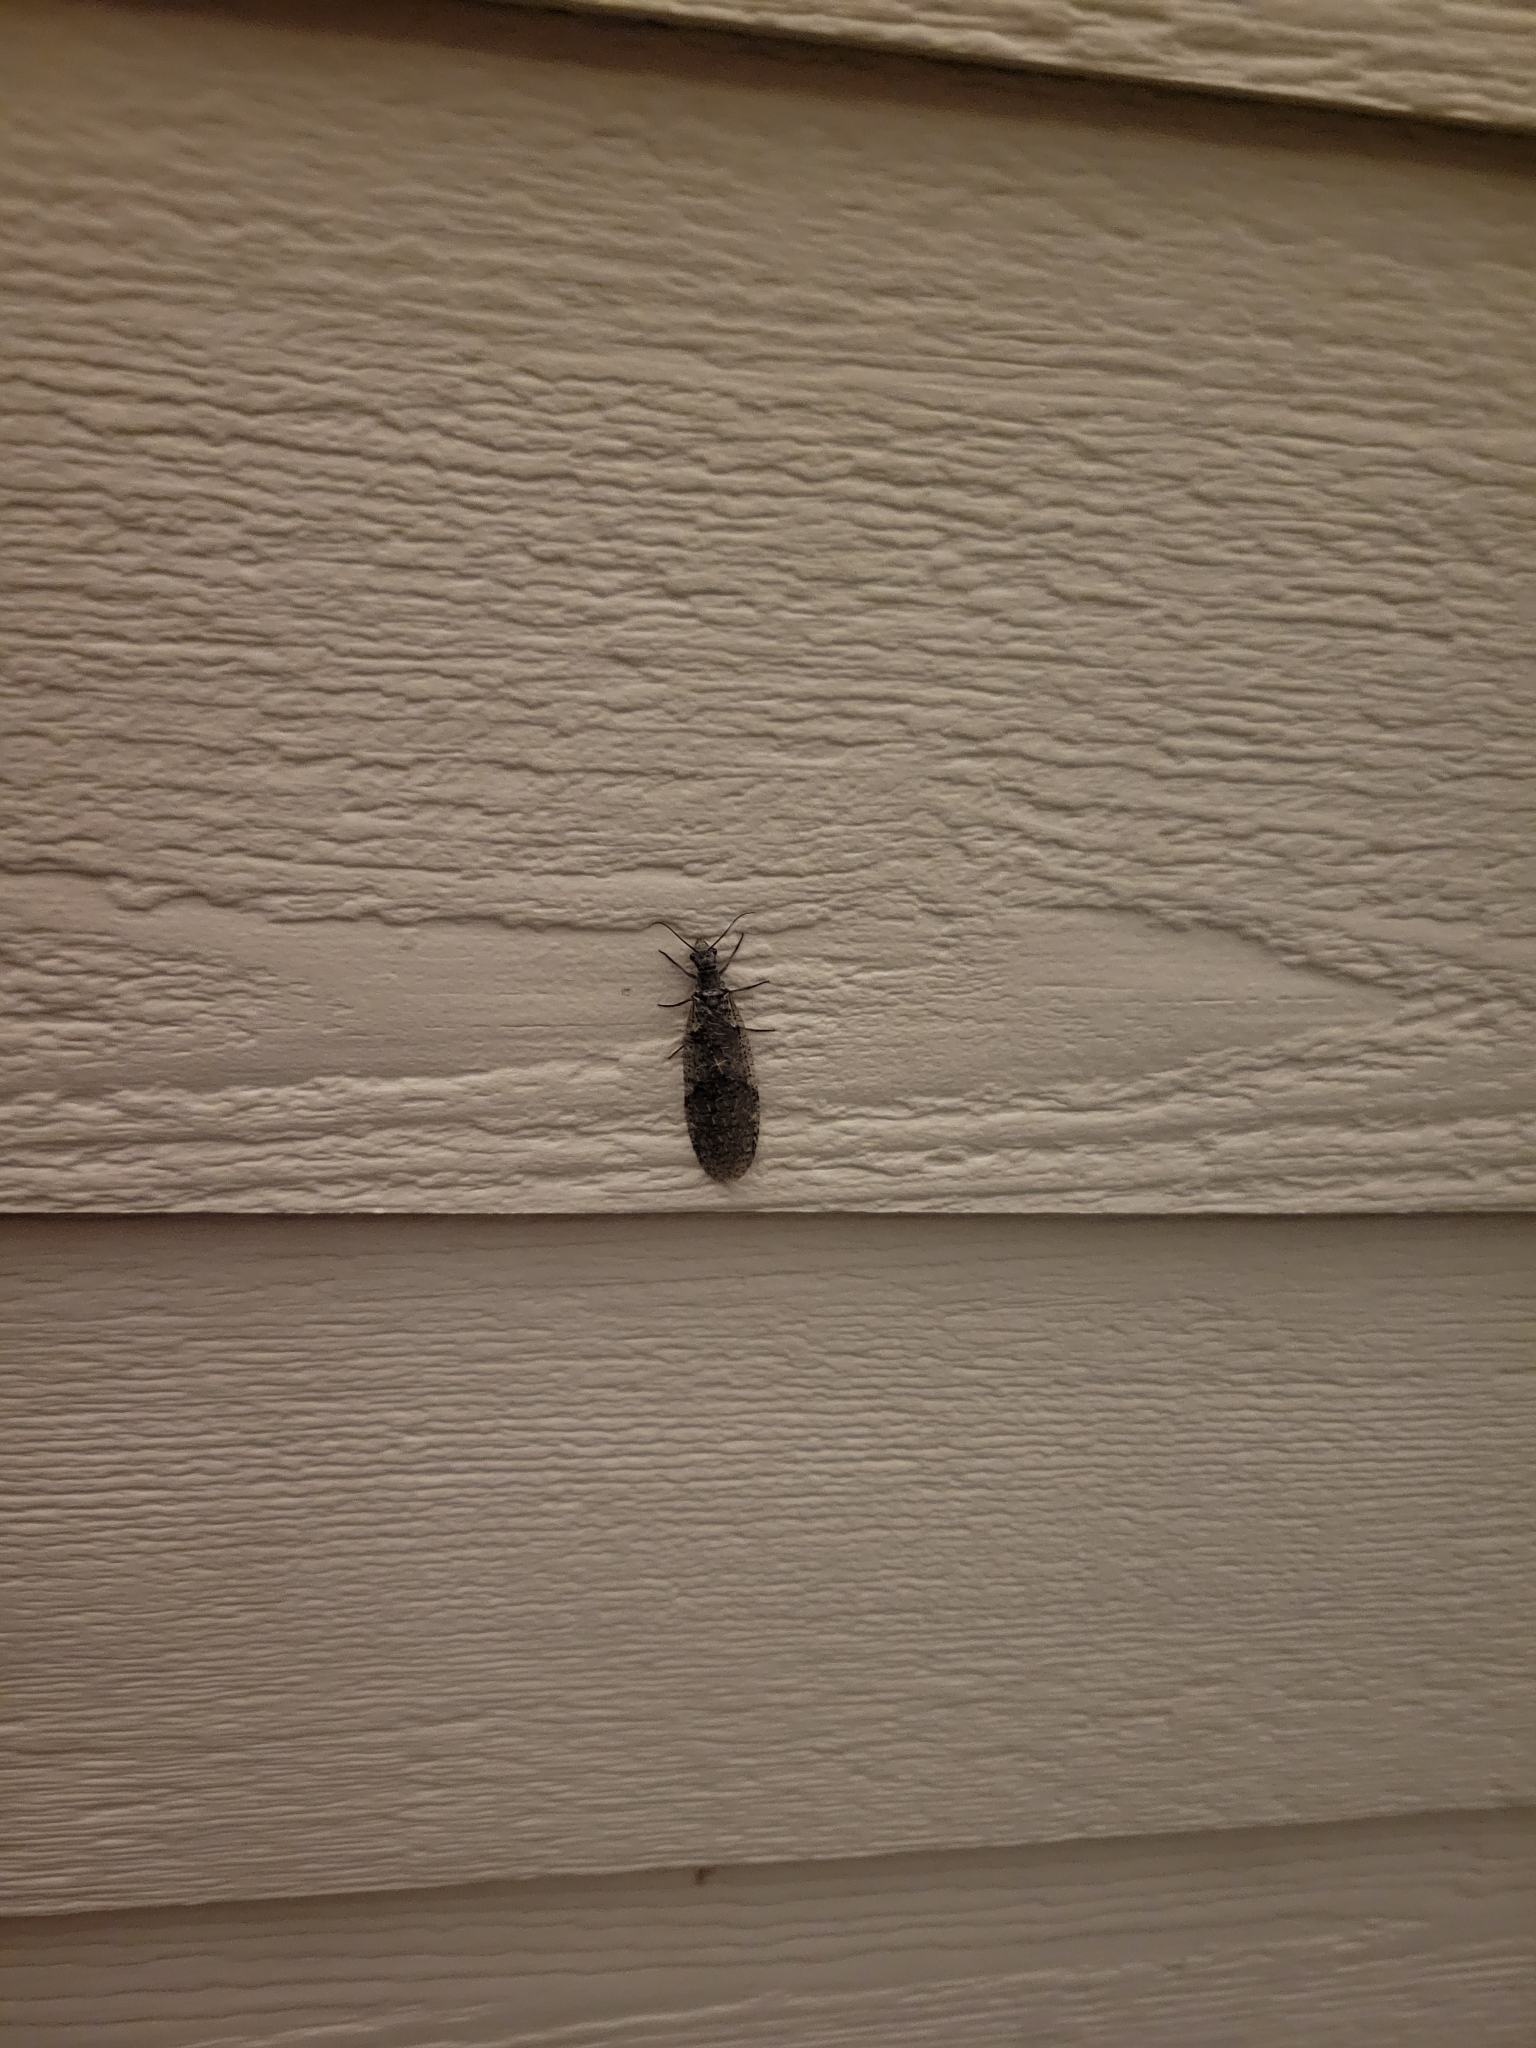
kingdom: Animalia
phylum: Arthropoda
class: Insecta
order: Megaloptera
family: Corydalidae
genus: Chauliodes
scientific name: Chauliodes rastricornis
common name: Spring fishfly
